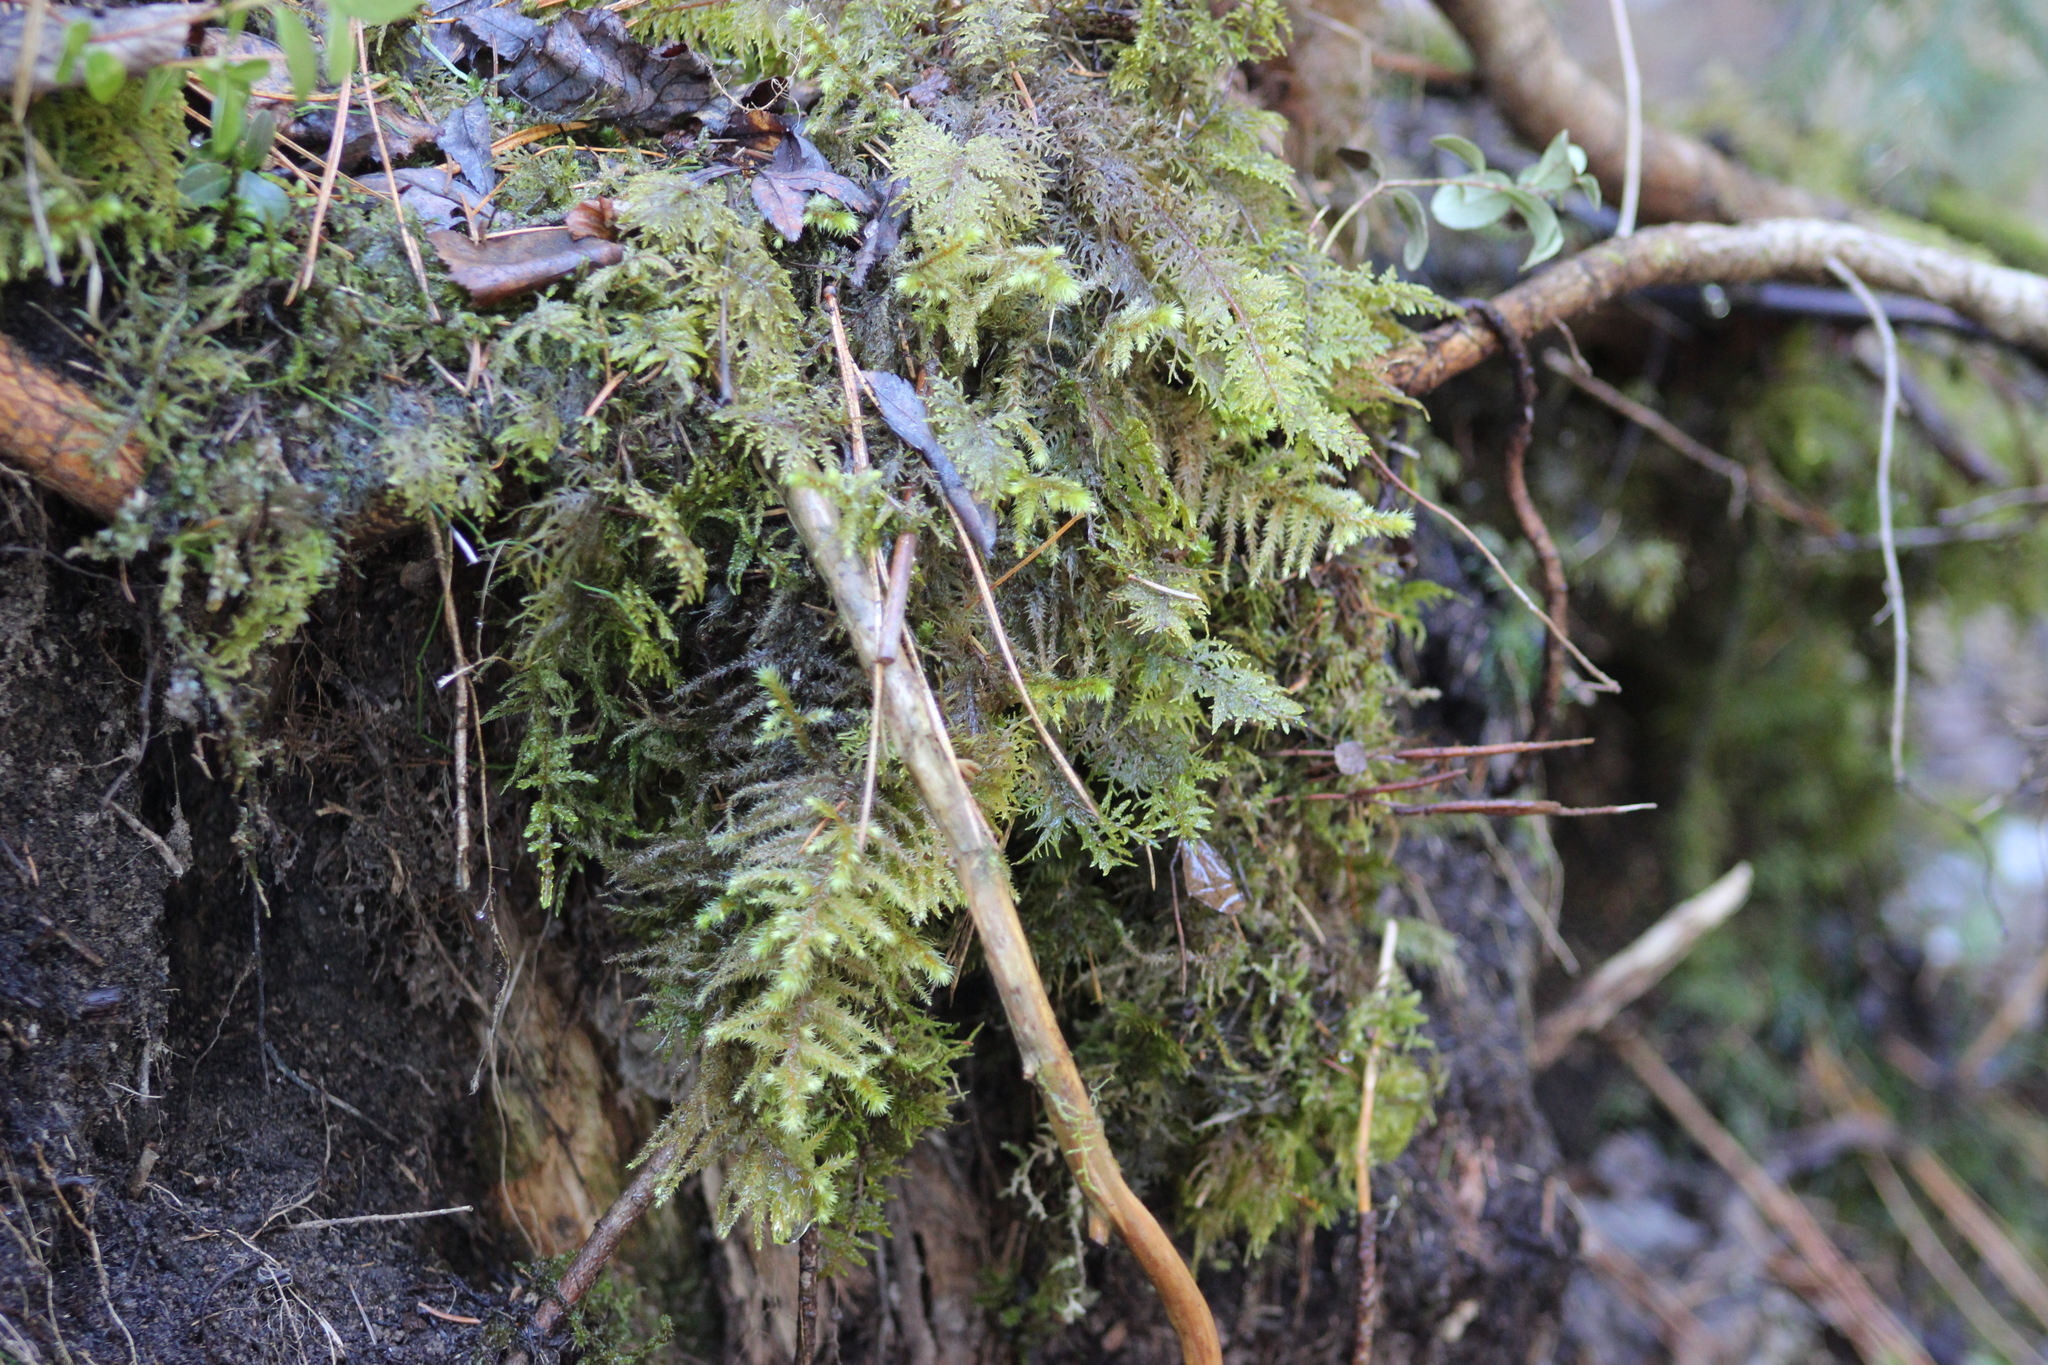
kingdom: Plantae
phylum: Bryophyta
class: Bryopsida
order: Hypnales
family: Hylocomiaceae
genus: Hylocomium
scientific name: Hylocomium splendens
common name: Stairstep moss
